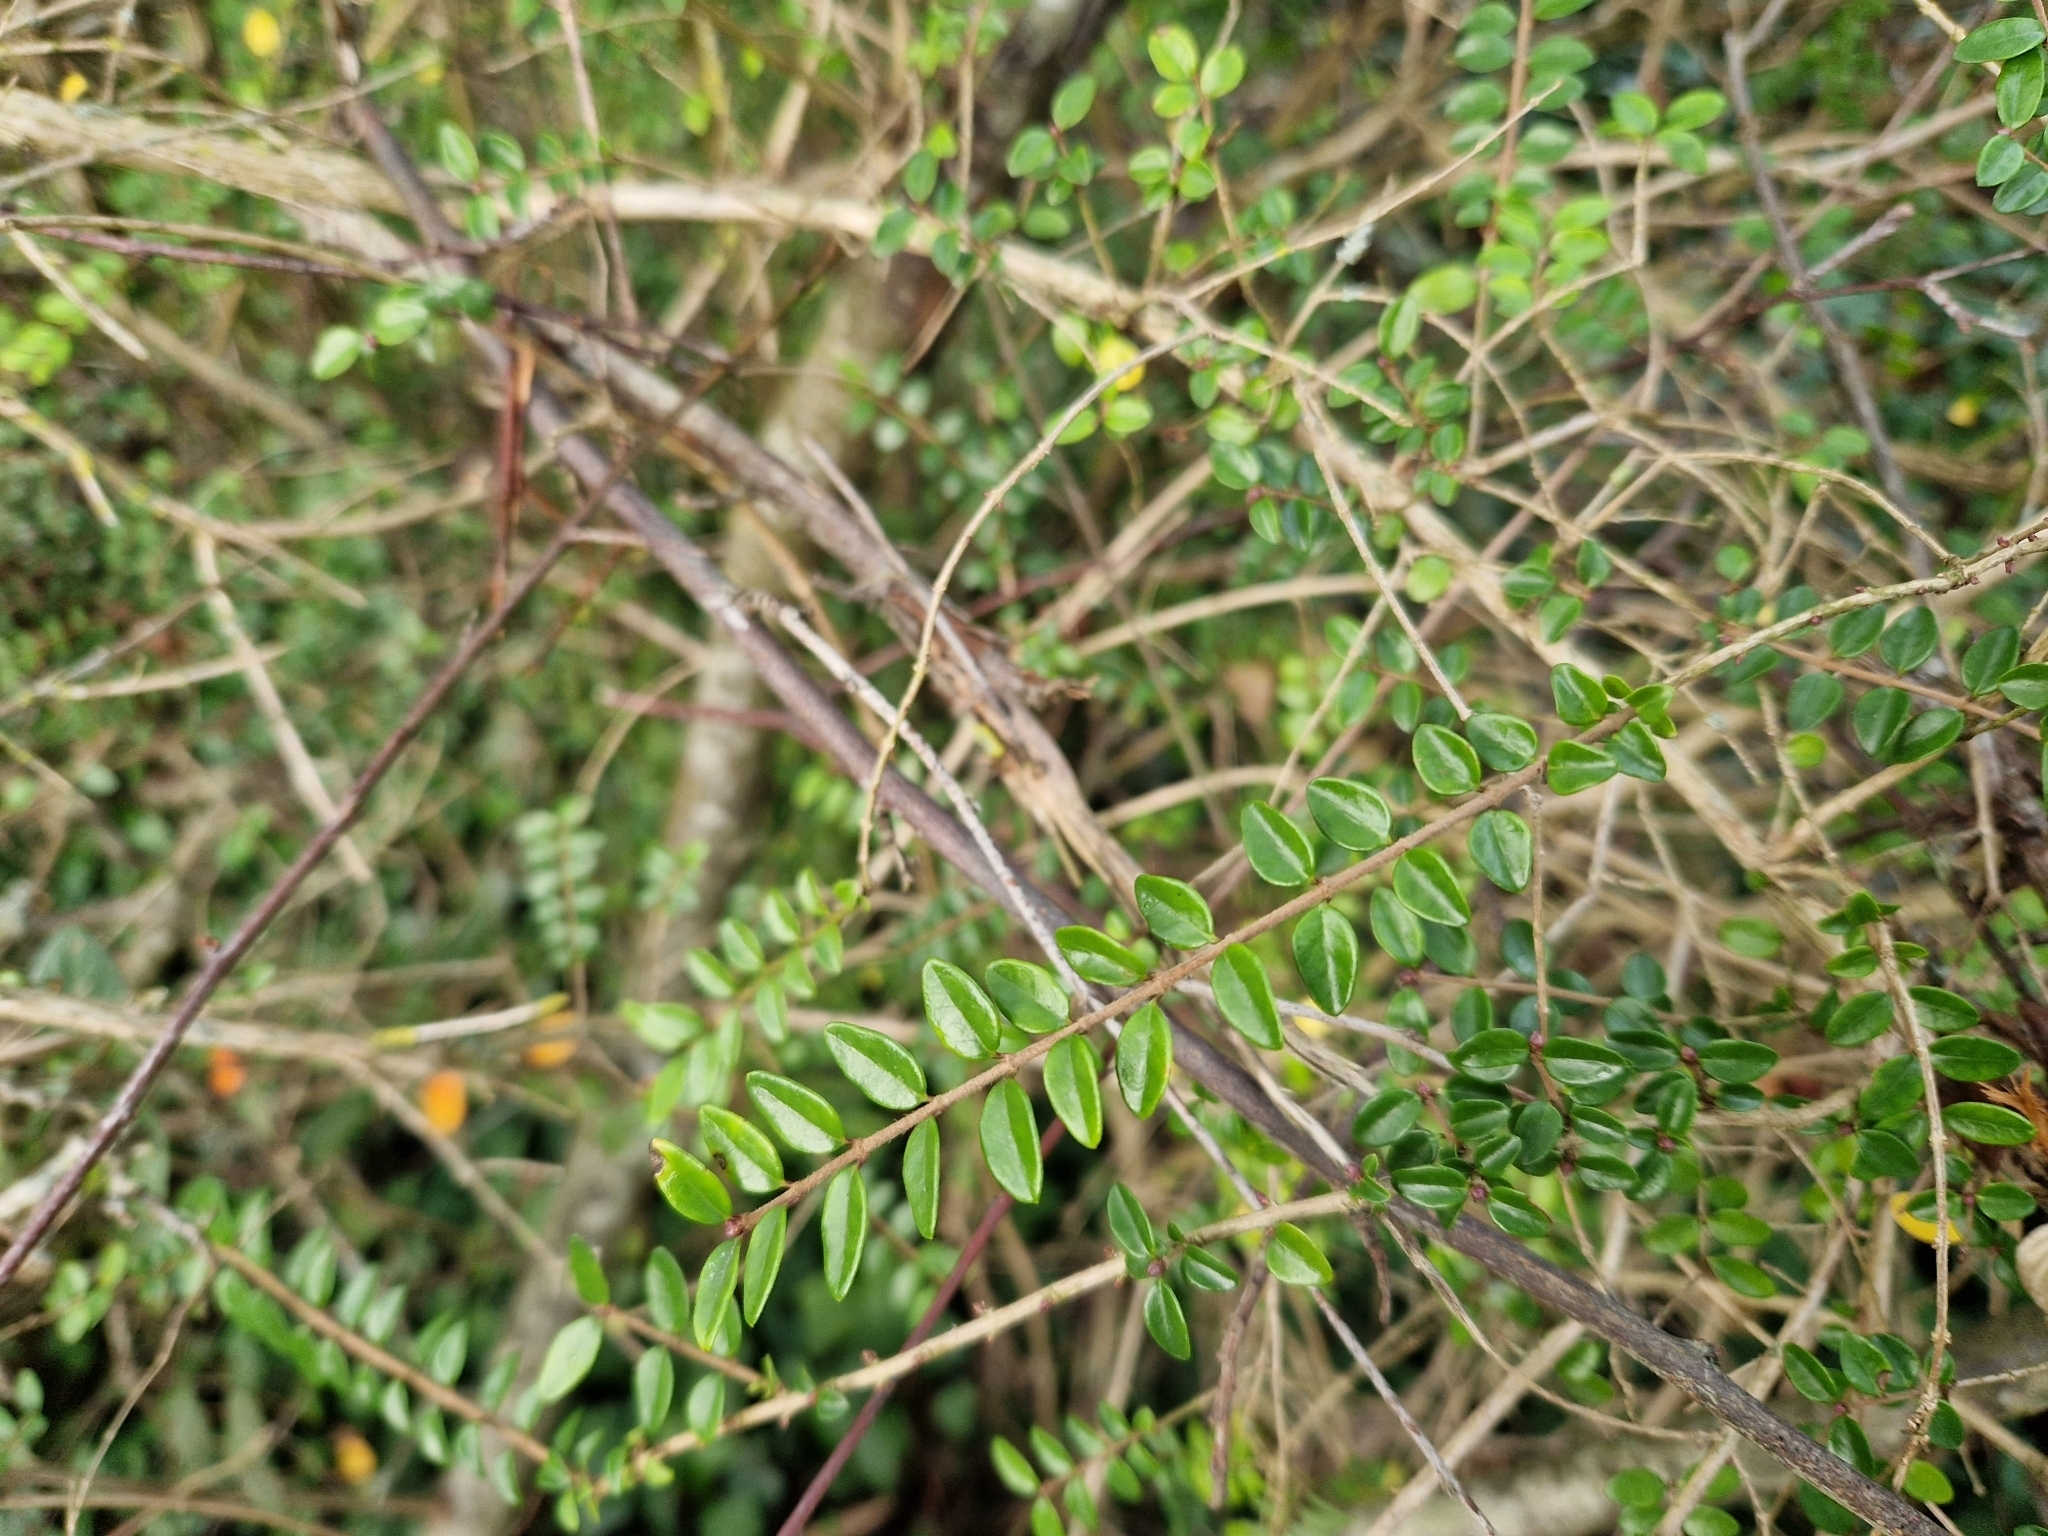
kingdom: Plantae
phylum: Tracheophyta
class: Magnoliopsida
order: Dipsacales
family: Caprifoliaceae
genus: Lonicera
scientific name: Lonicera ligustrina
